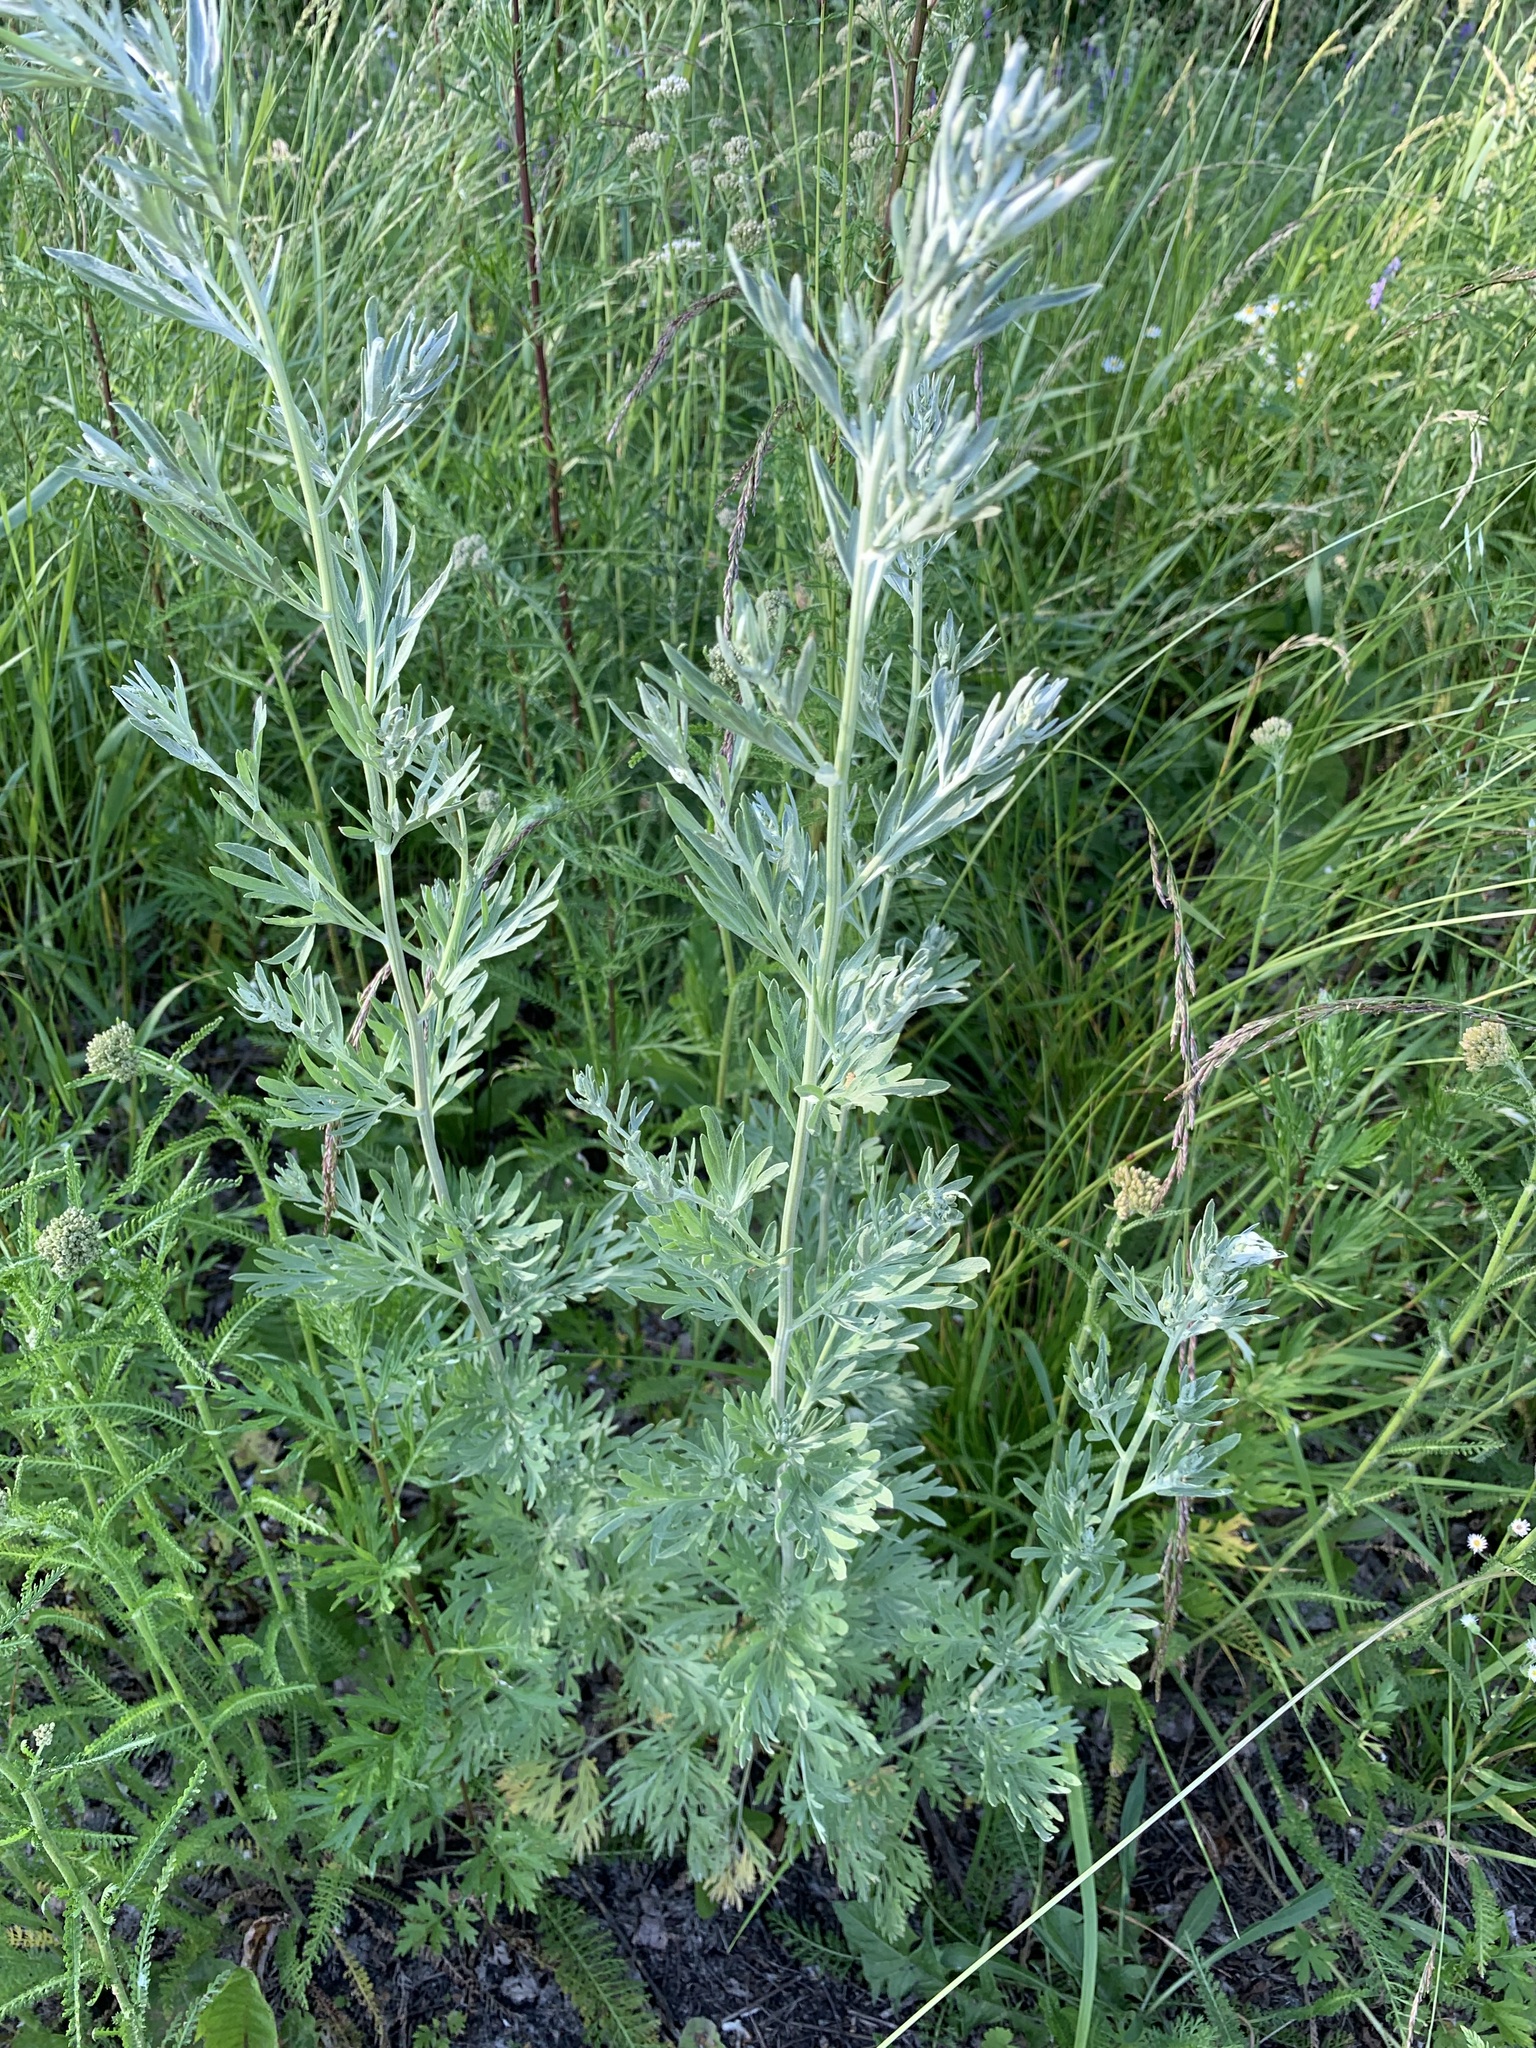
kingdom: Plantae
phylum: Tracheophyta
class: Magnoliopsida
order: Asterales
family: Asteraceae
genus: Artemisia
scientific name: Artemisia absinthium
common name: Wormwood
